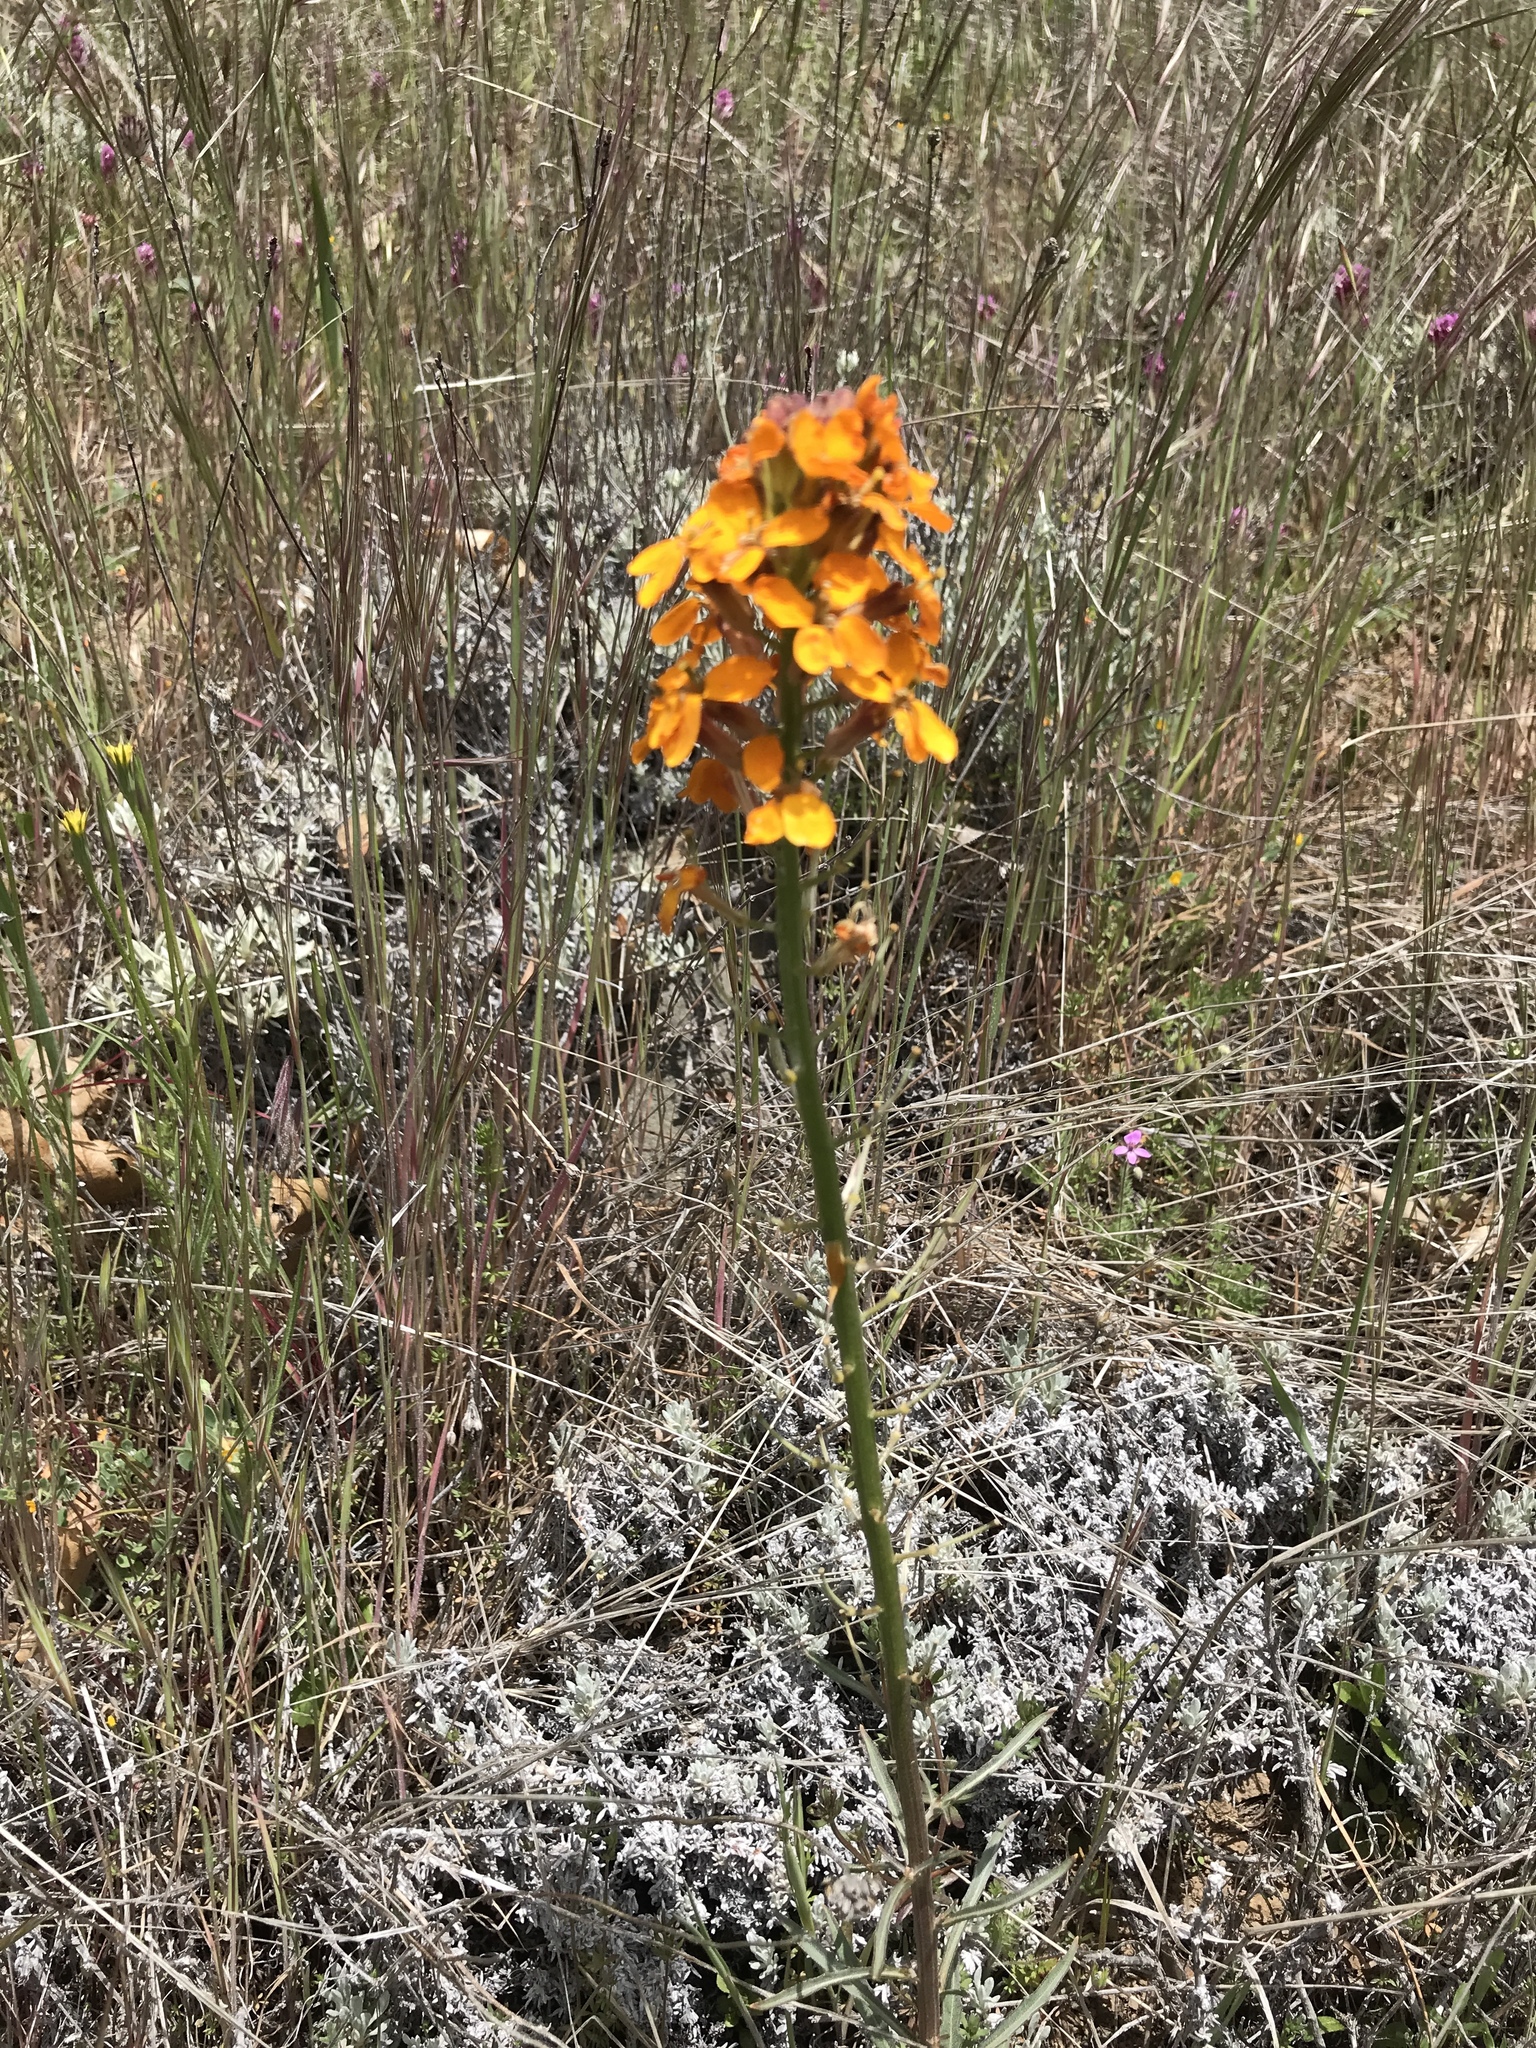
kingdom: Plantae
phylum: Tracheophyta
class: Magnoliopsida
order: Brassicales
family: Brassicaceae
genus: Erysimum
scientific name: Erysimum capitatum
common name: Western wallflower
